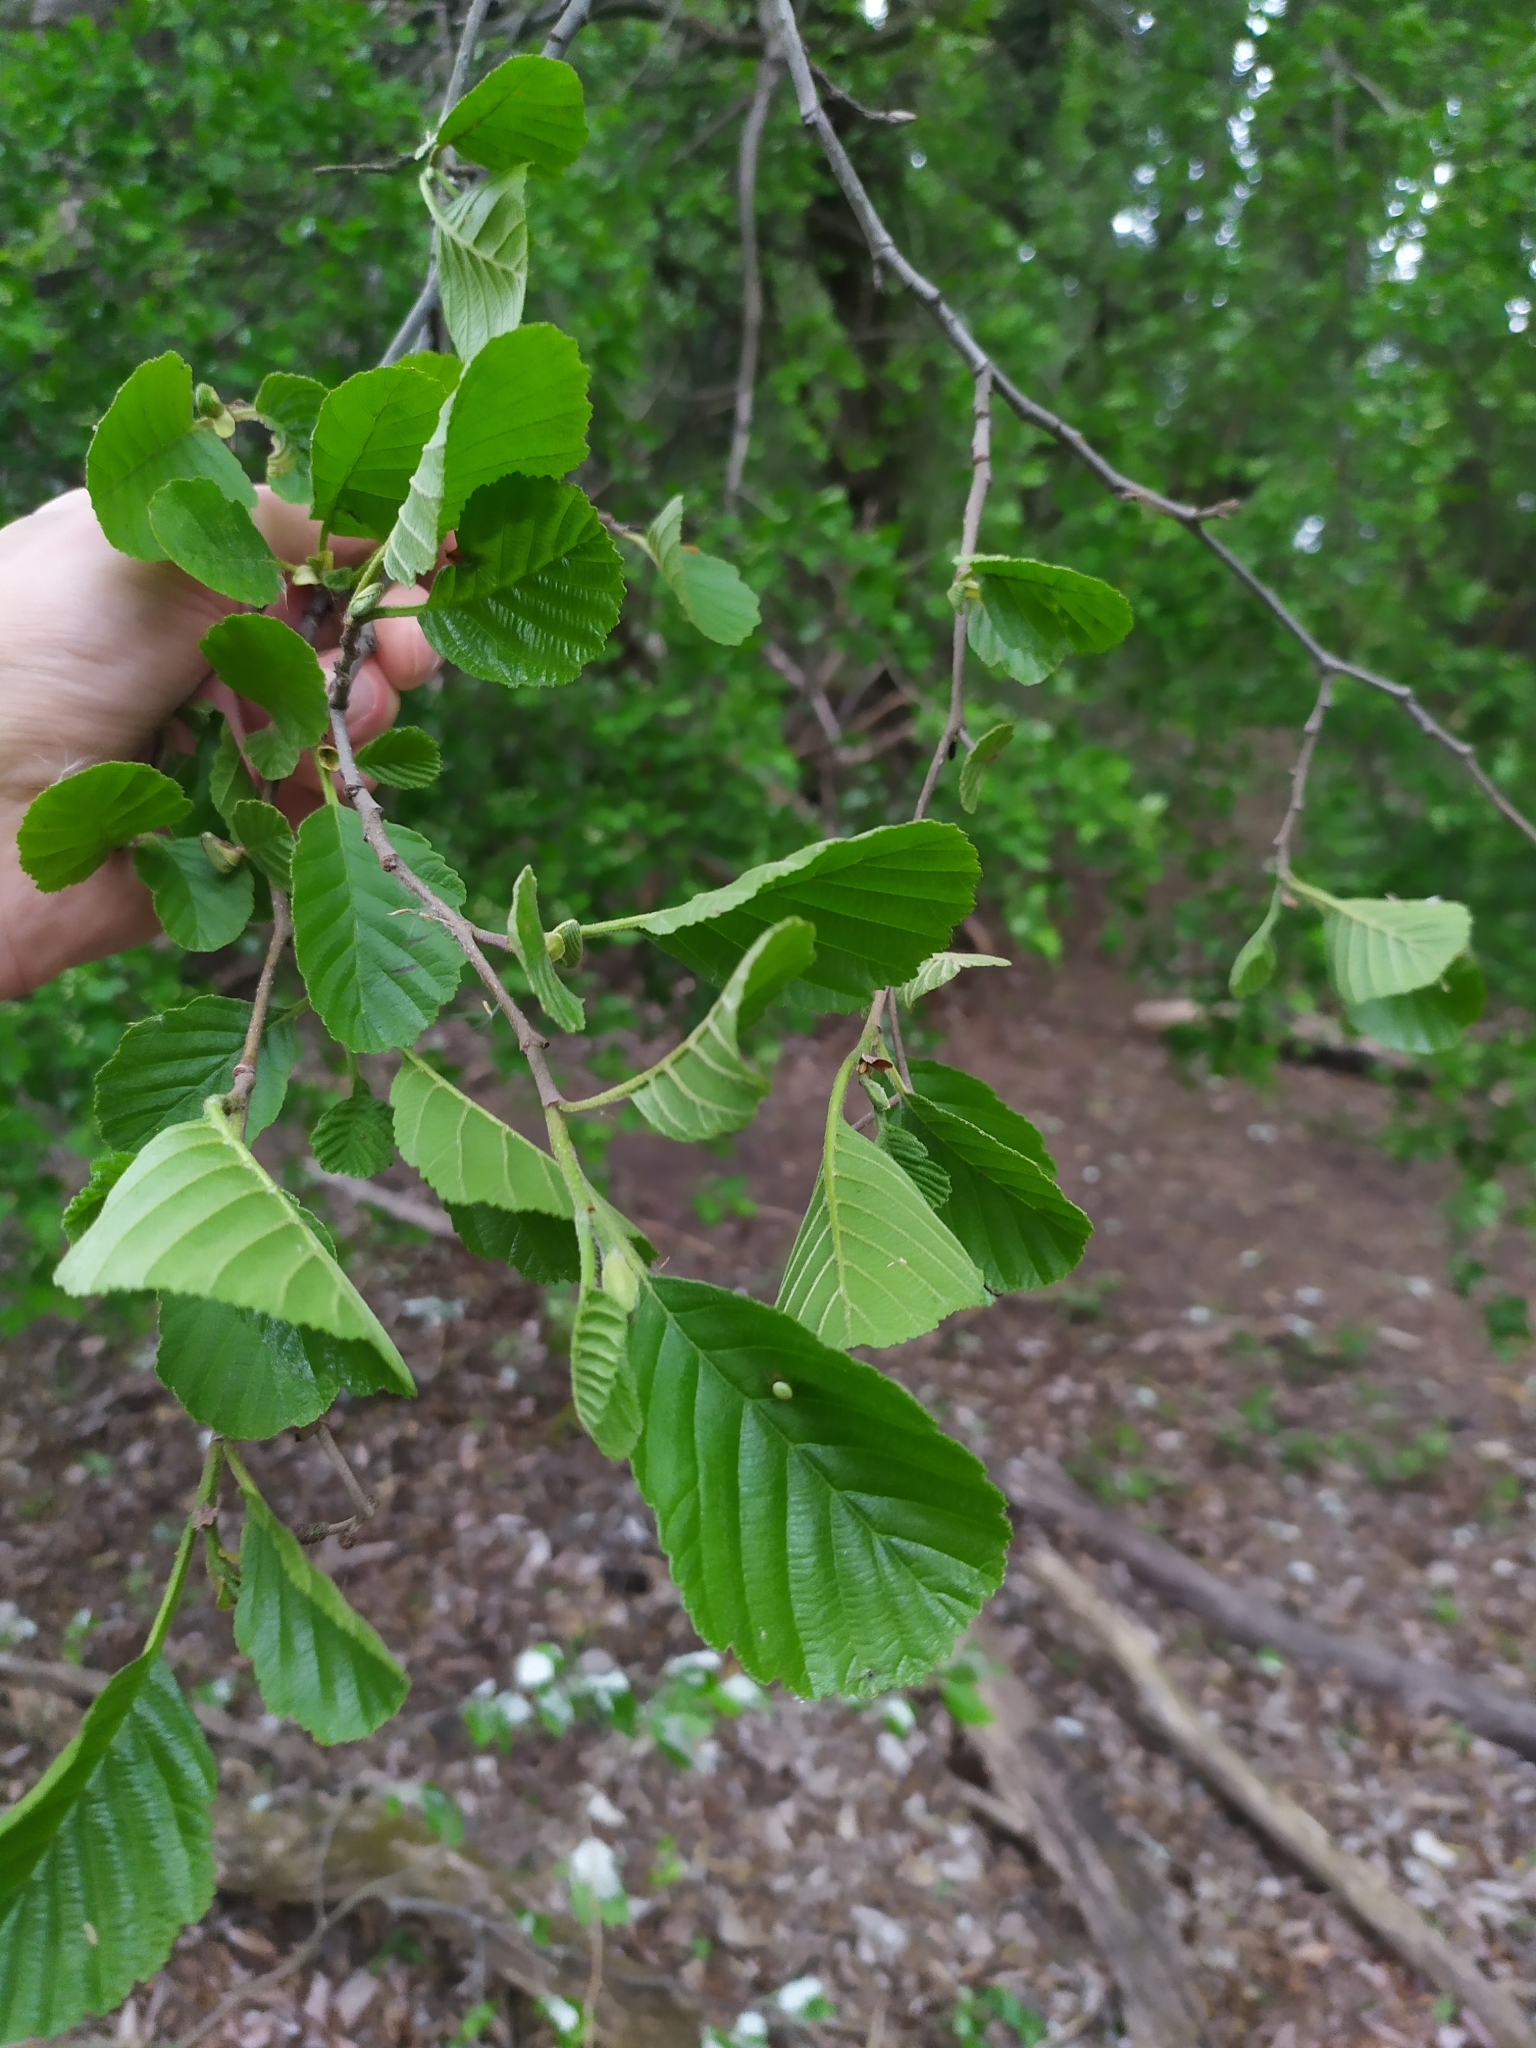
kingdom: Plantae
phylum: Tracheophyta
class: Magnoliopsida
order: Fagales
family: Betulaceae
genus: Alnus
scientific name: Alnus glutinosa
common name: Black alder
